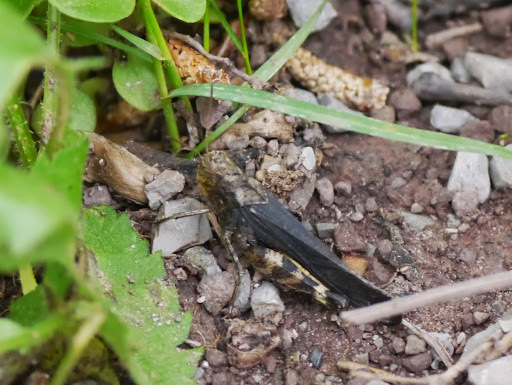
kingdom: Animalia
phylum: Arthropoda
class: Insecta
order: Orthoptera
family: Acrididae
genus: Arphia
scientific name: Arphia sulphurea
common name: Spring yellow-winged locust
